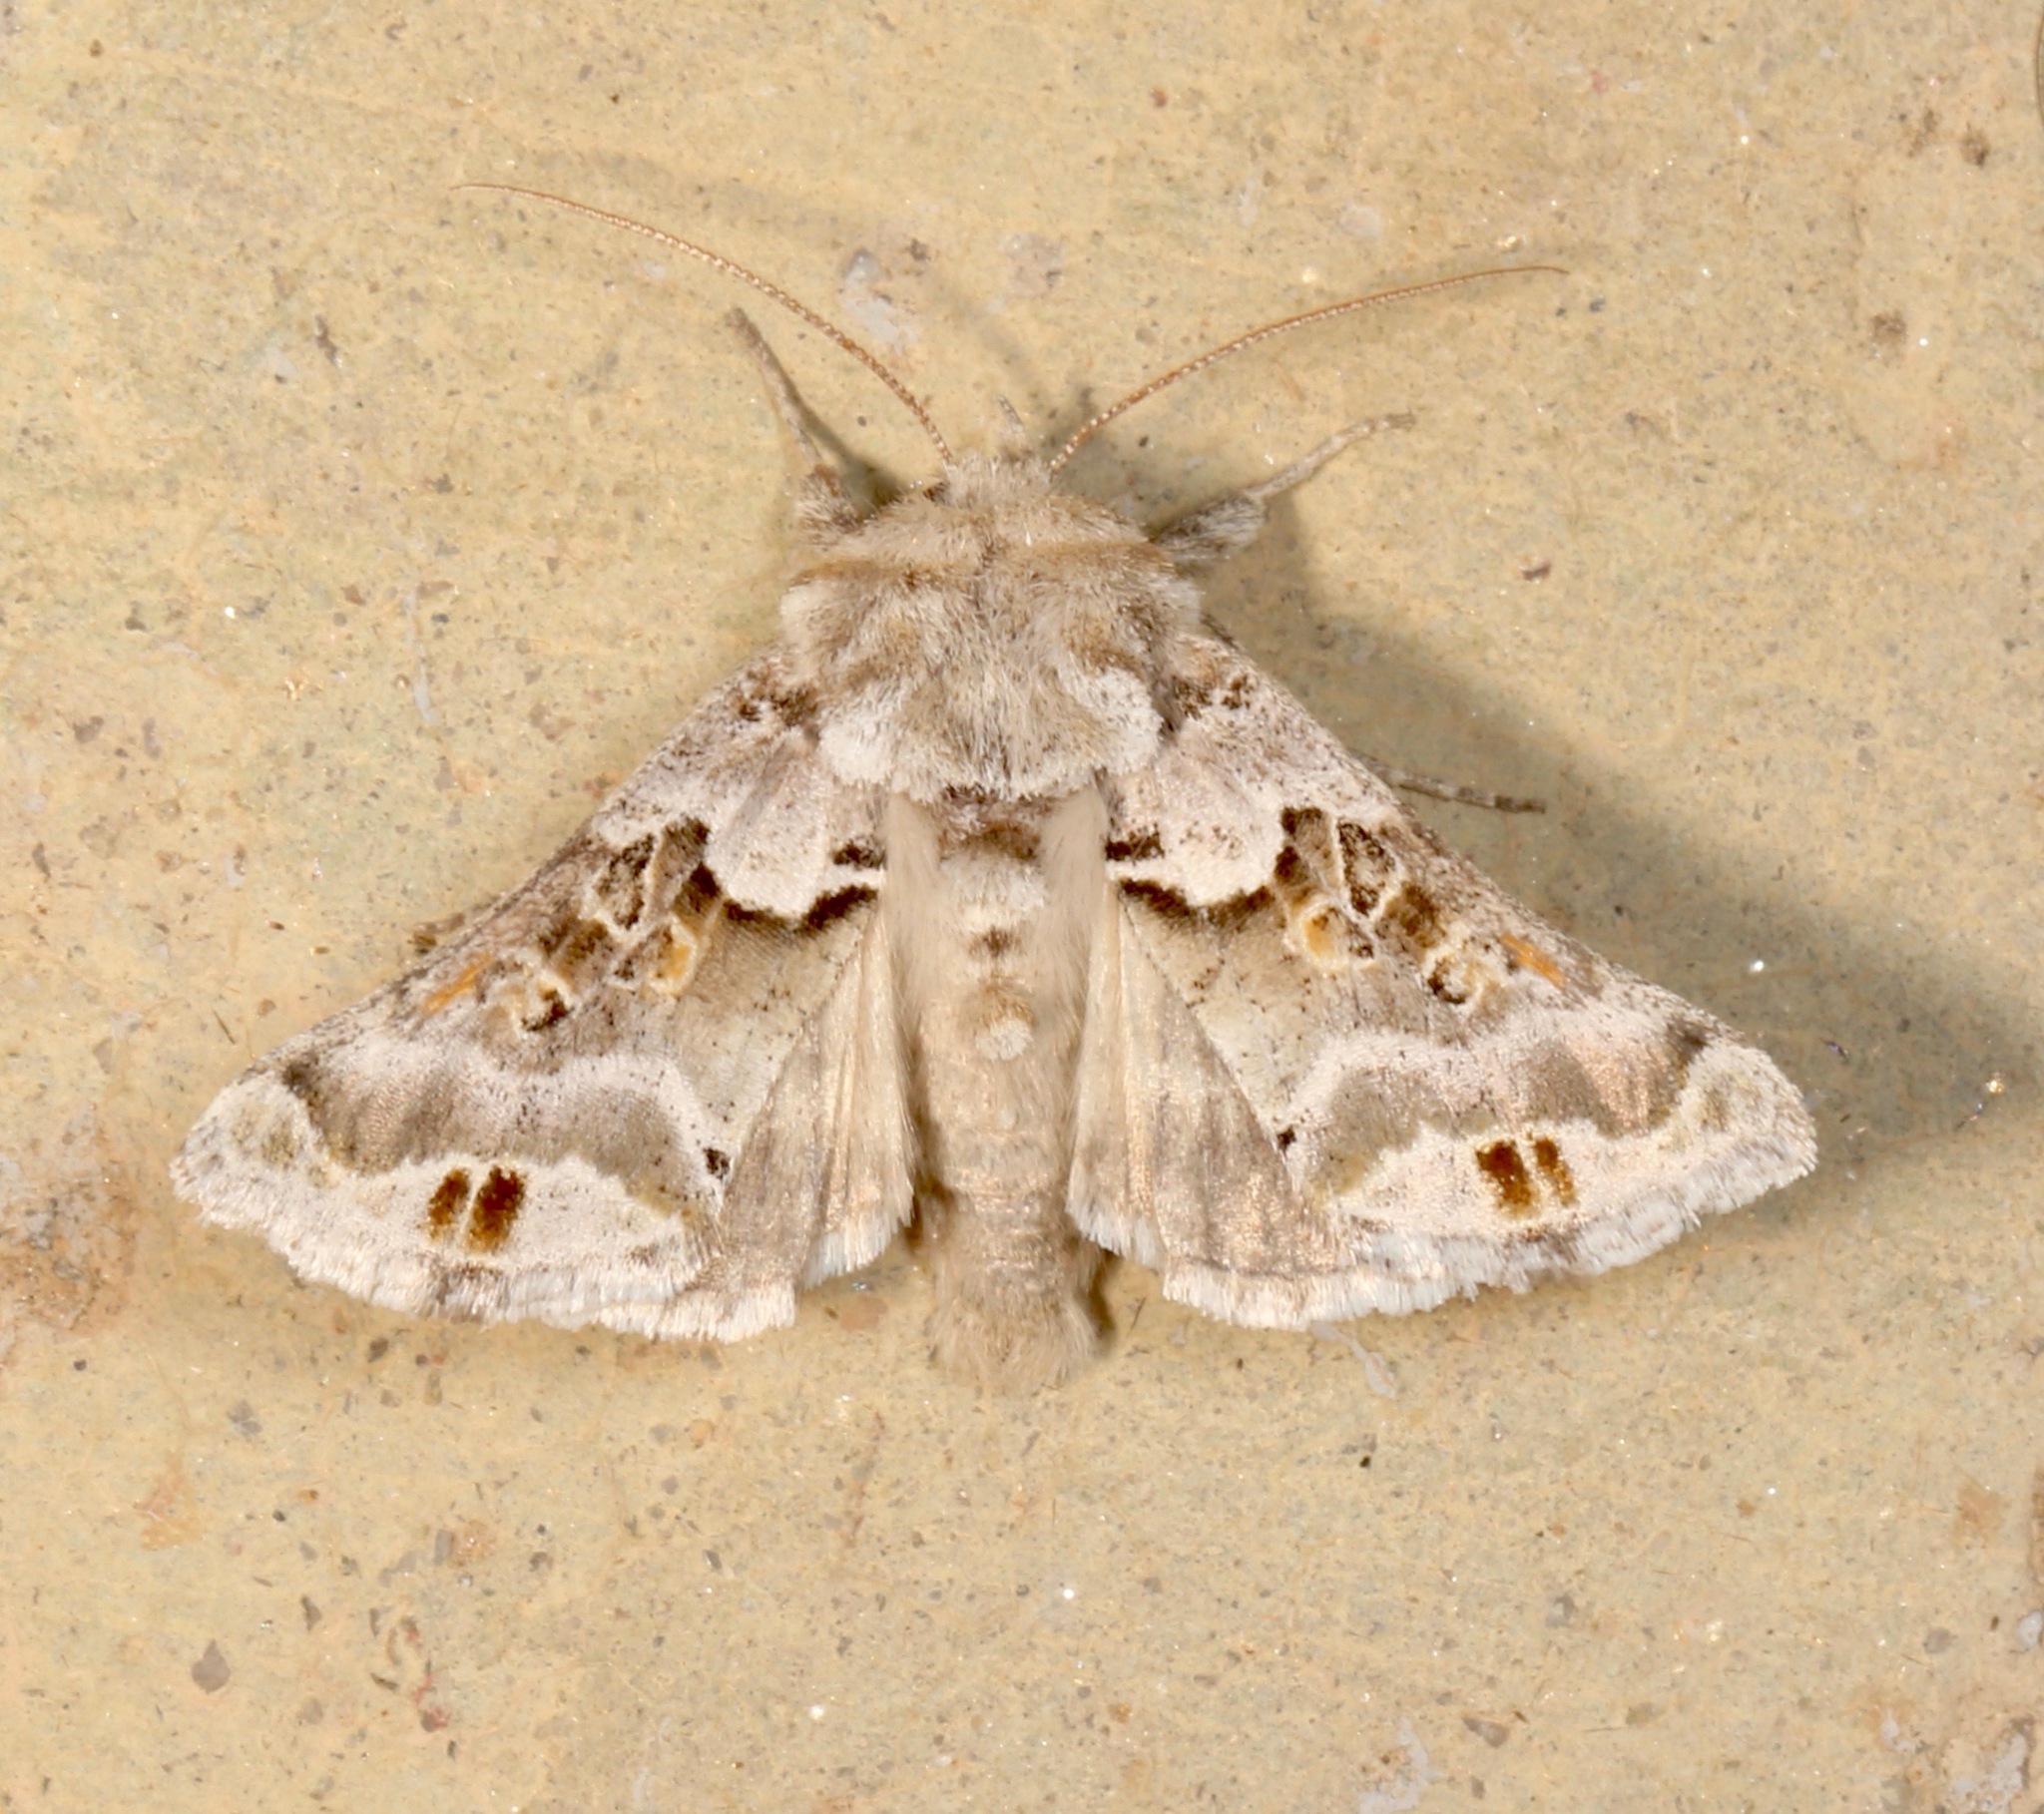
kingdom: Animalia
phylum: Arthropoda
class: Insecta
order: Lepidoptera
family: Noctuidae
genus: Euchalcia
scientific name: Euchalcia albavitta
